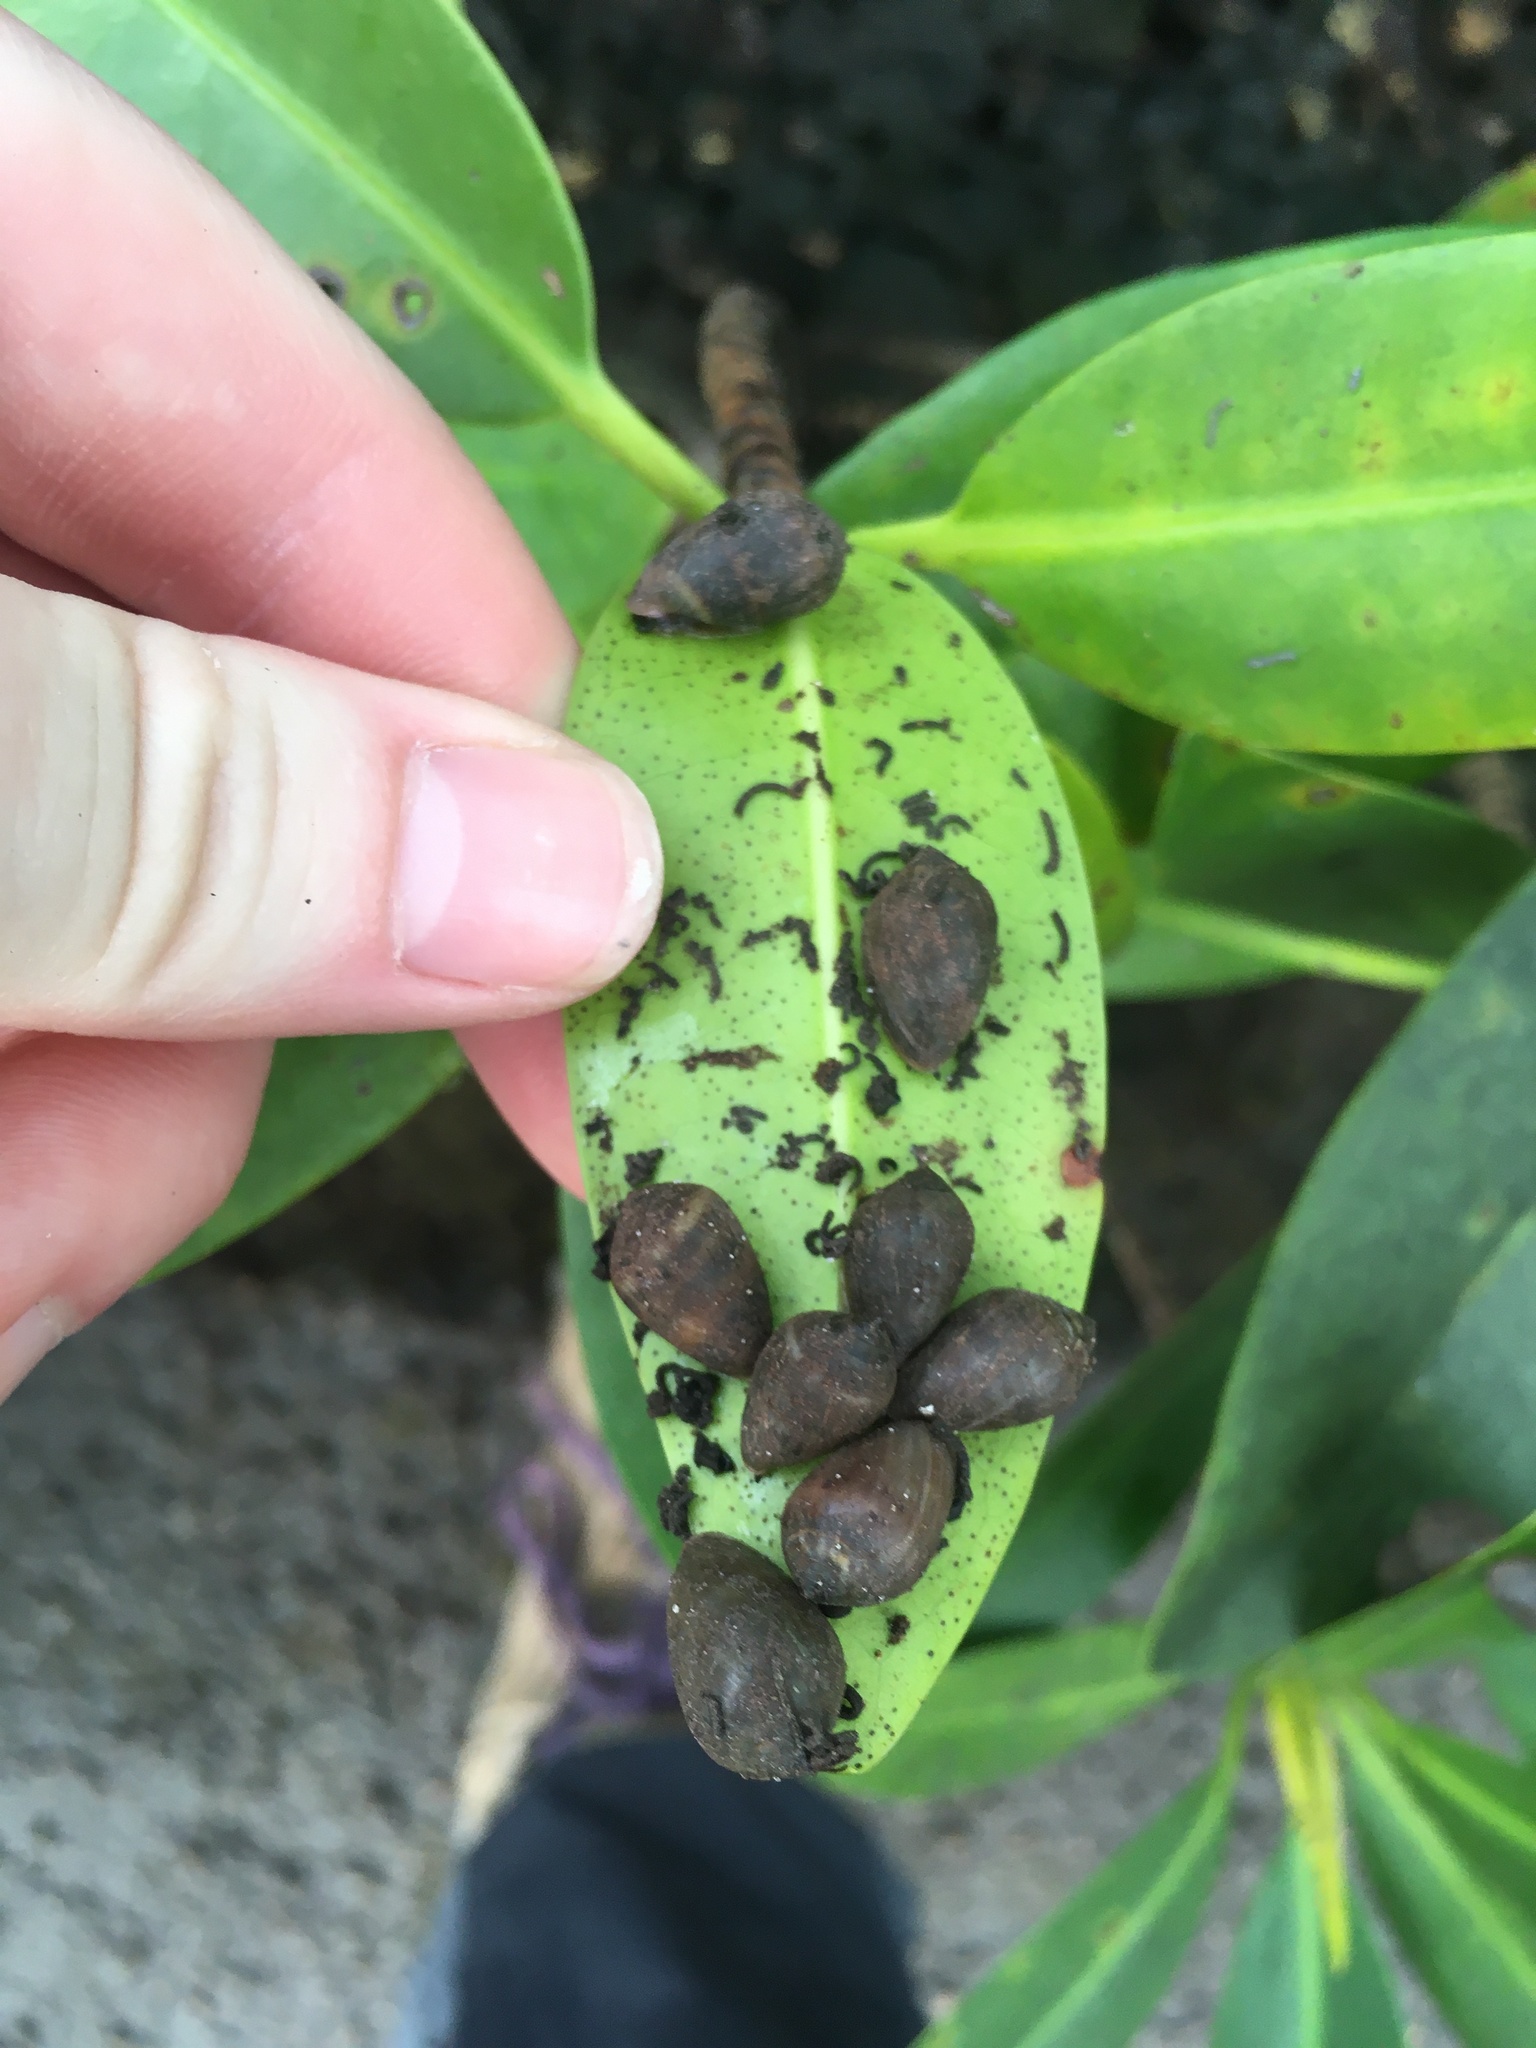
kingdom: Animalia
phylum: Mollusca
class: Gastropoda
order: Ellobiida
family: Ellobiidae
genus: Melampus
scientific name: Melampus coffea
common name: Coffee bean snail
